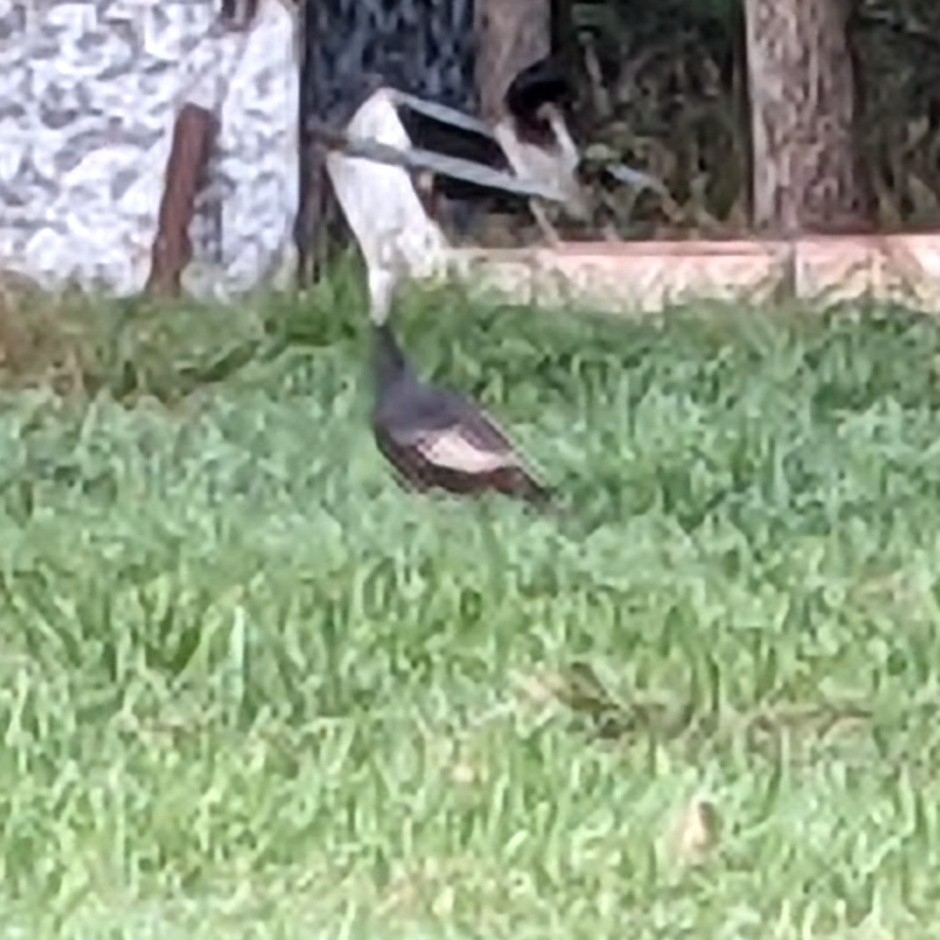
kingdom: Animalia
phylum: Chordata
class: Aves
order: Galliformes
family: Phasianidae
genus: Meleagris
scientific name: Meleagris gallopavo
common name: Wild turkey
